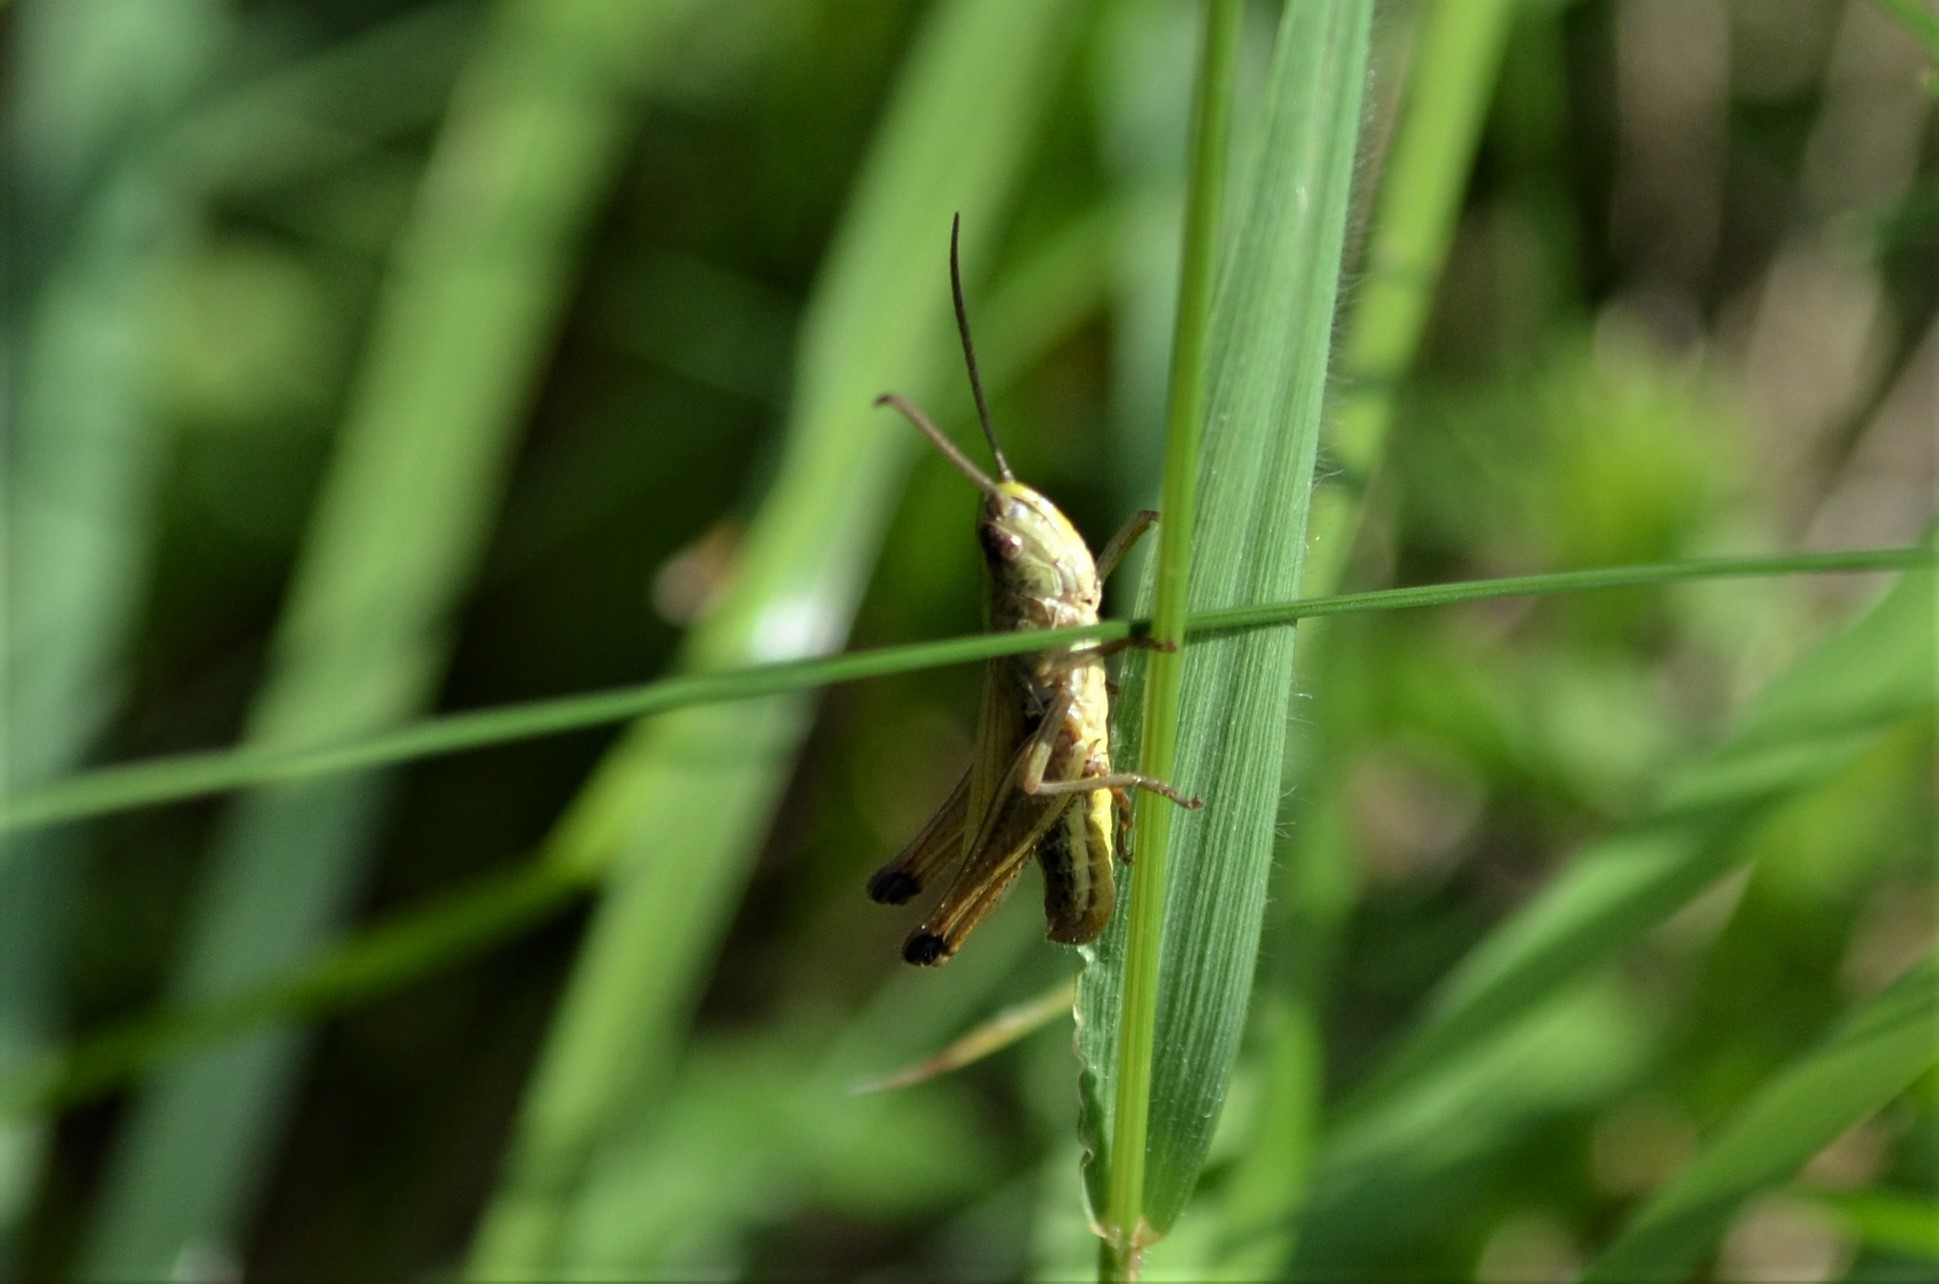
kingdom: Animalia
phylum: Arthropoda
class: Insecta
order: Orthoptera
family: Acrididae
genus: Pseudochorthippus
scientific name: Pseudochorthippus parallelus
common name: Meadow grasshopper
